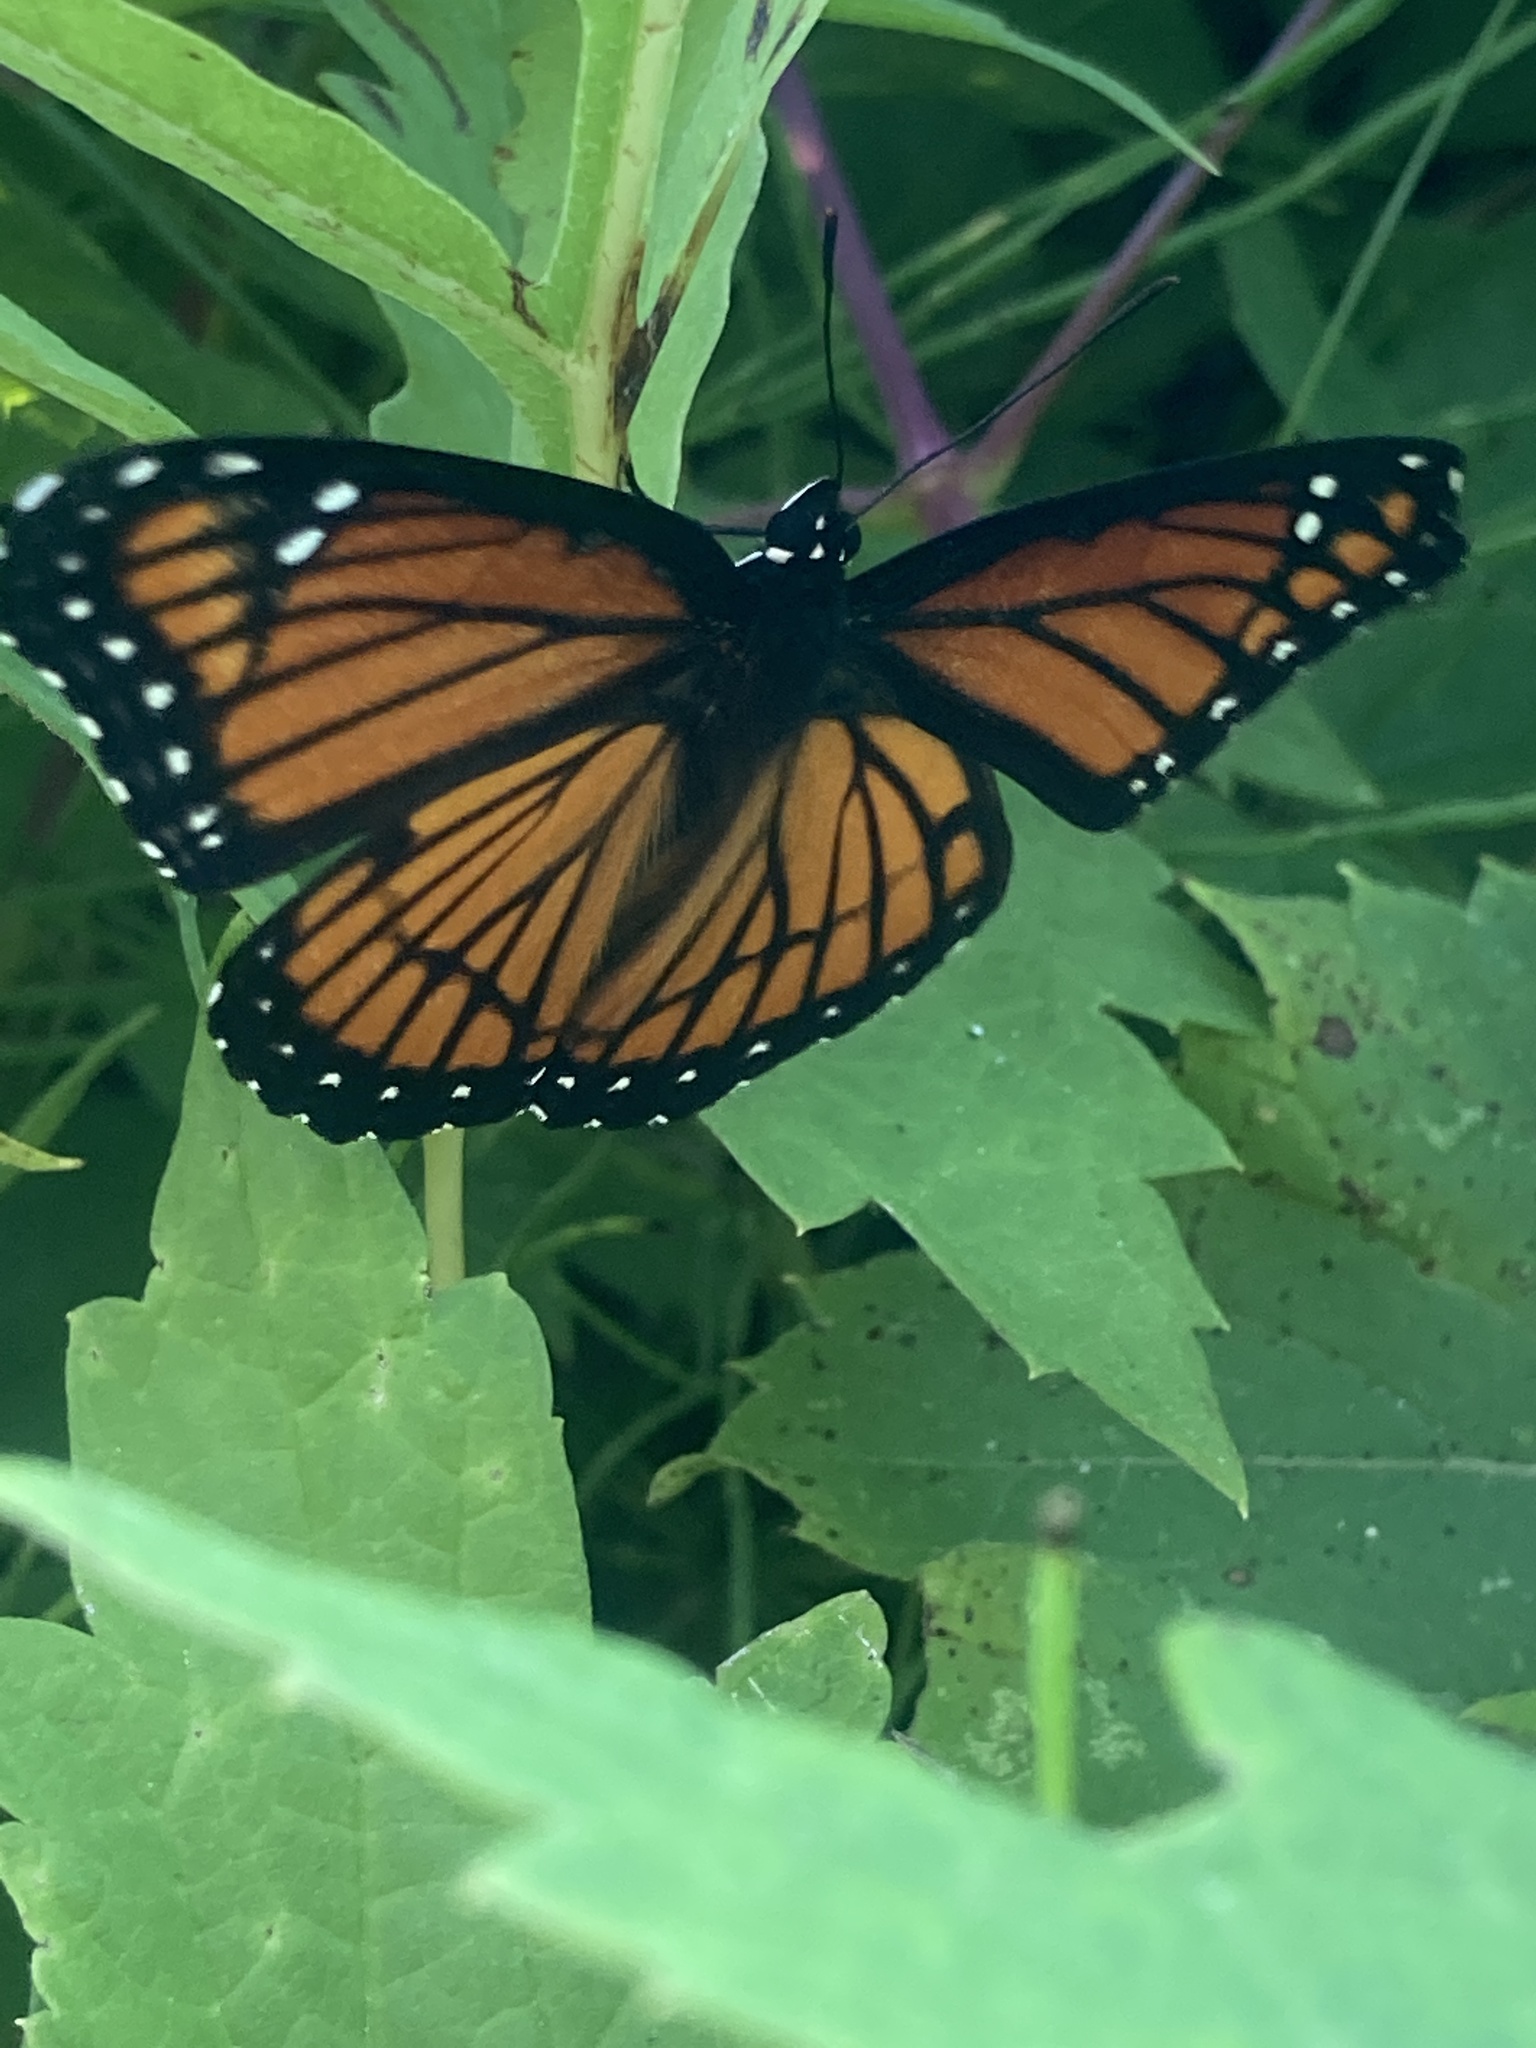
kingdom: Animalia
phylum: Arthropoda
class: Insecta
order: Lepidoptera
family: Nymphalidae
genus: Limenitis
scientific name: Limenitis archippus
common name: Viceroy
